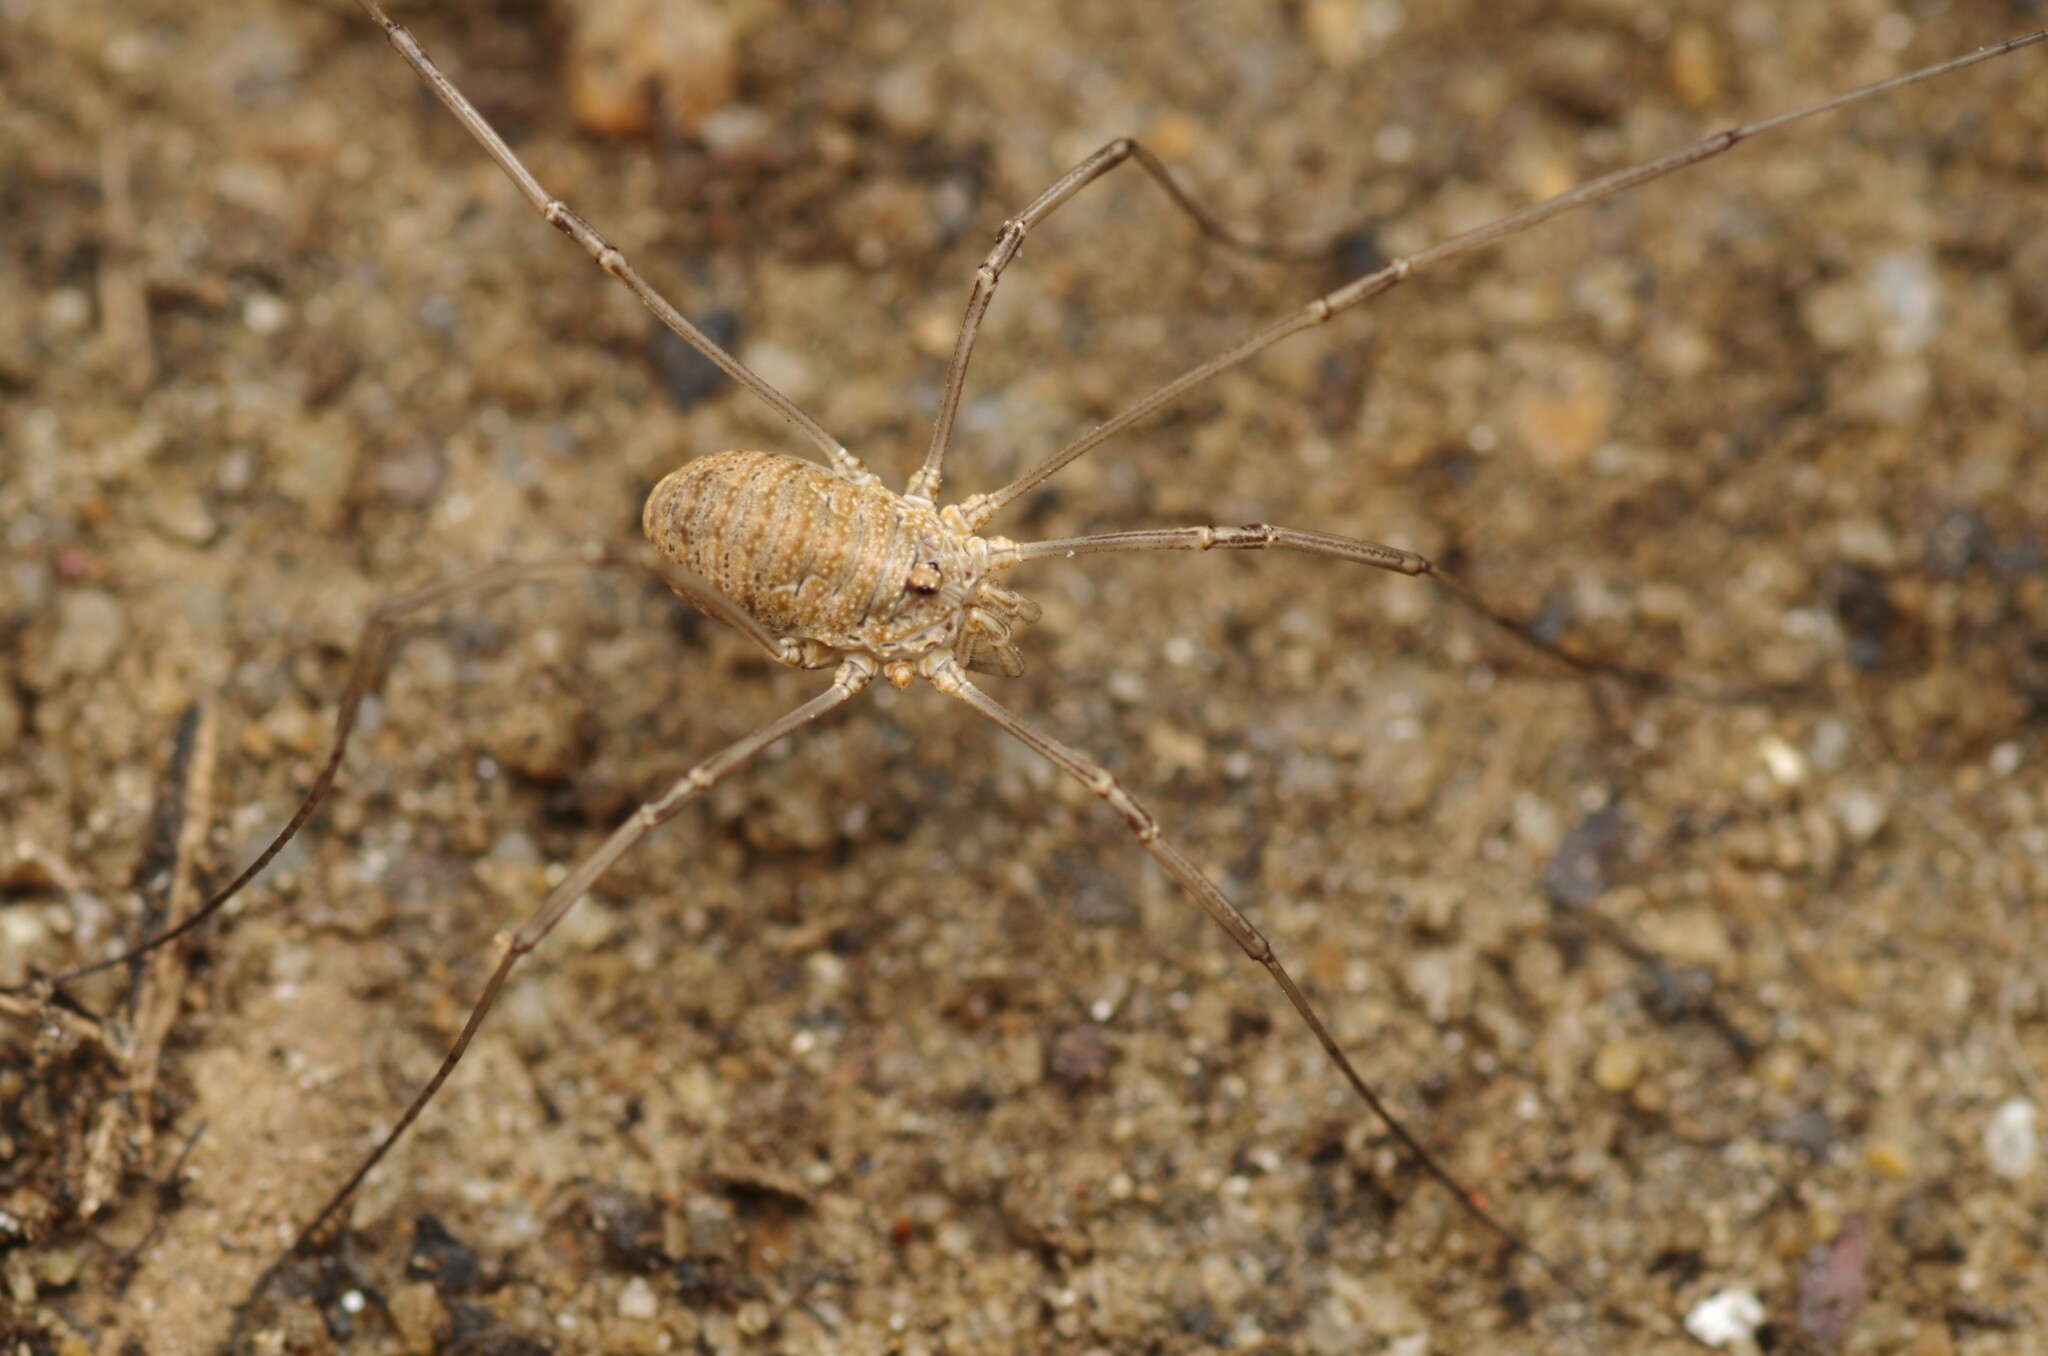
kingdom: Animalia
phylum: Arthropoda
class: Arachnida
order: Opiliones
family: Phalangiidae
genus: Phalangium
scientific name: Phalangium opilio
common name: Daddy longleg
